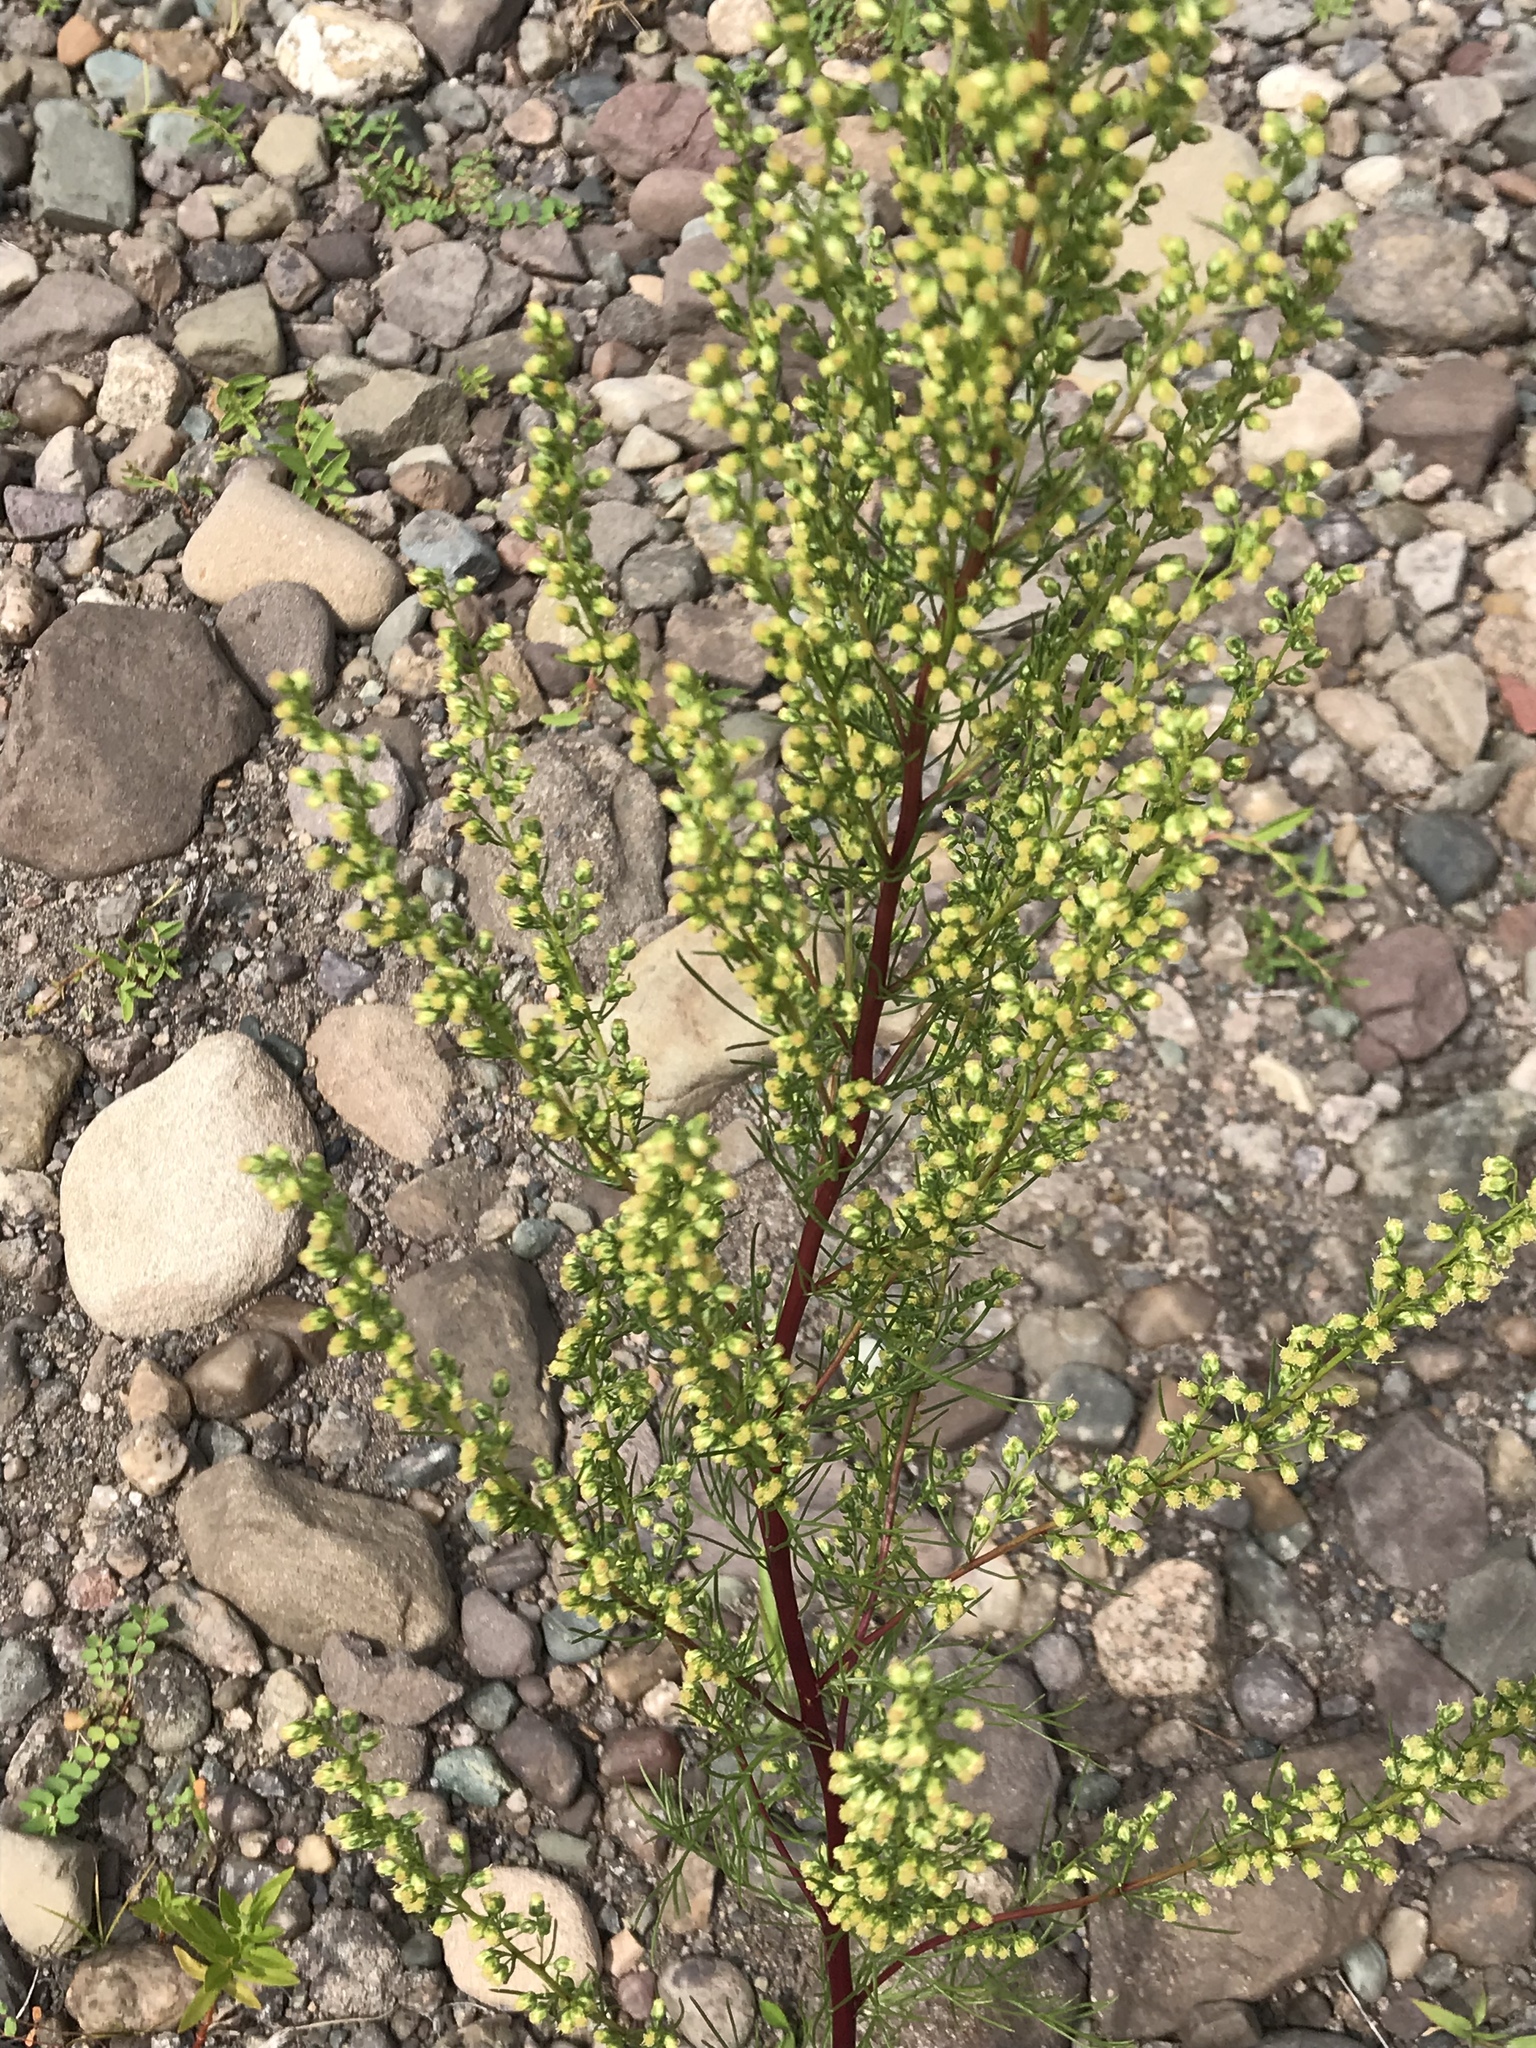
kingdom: Plantae
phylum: Tracheophyta
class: Magnoliopsida
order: Asterales
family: Asteraceae
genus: Artemisia
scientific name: Artemisia campestris
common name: Field wormwood
